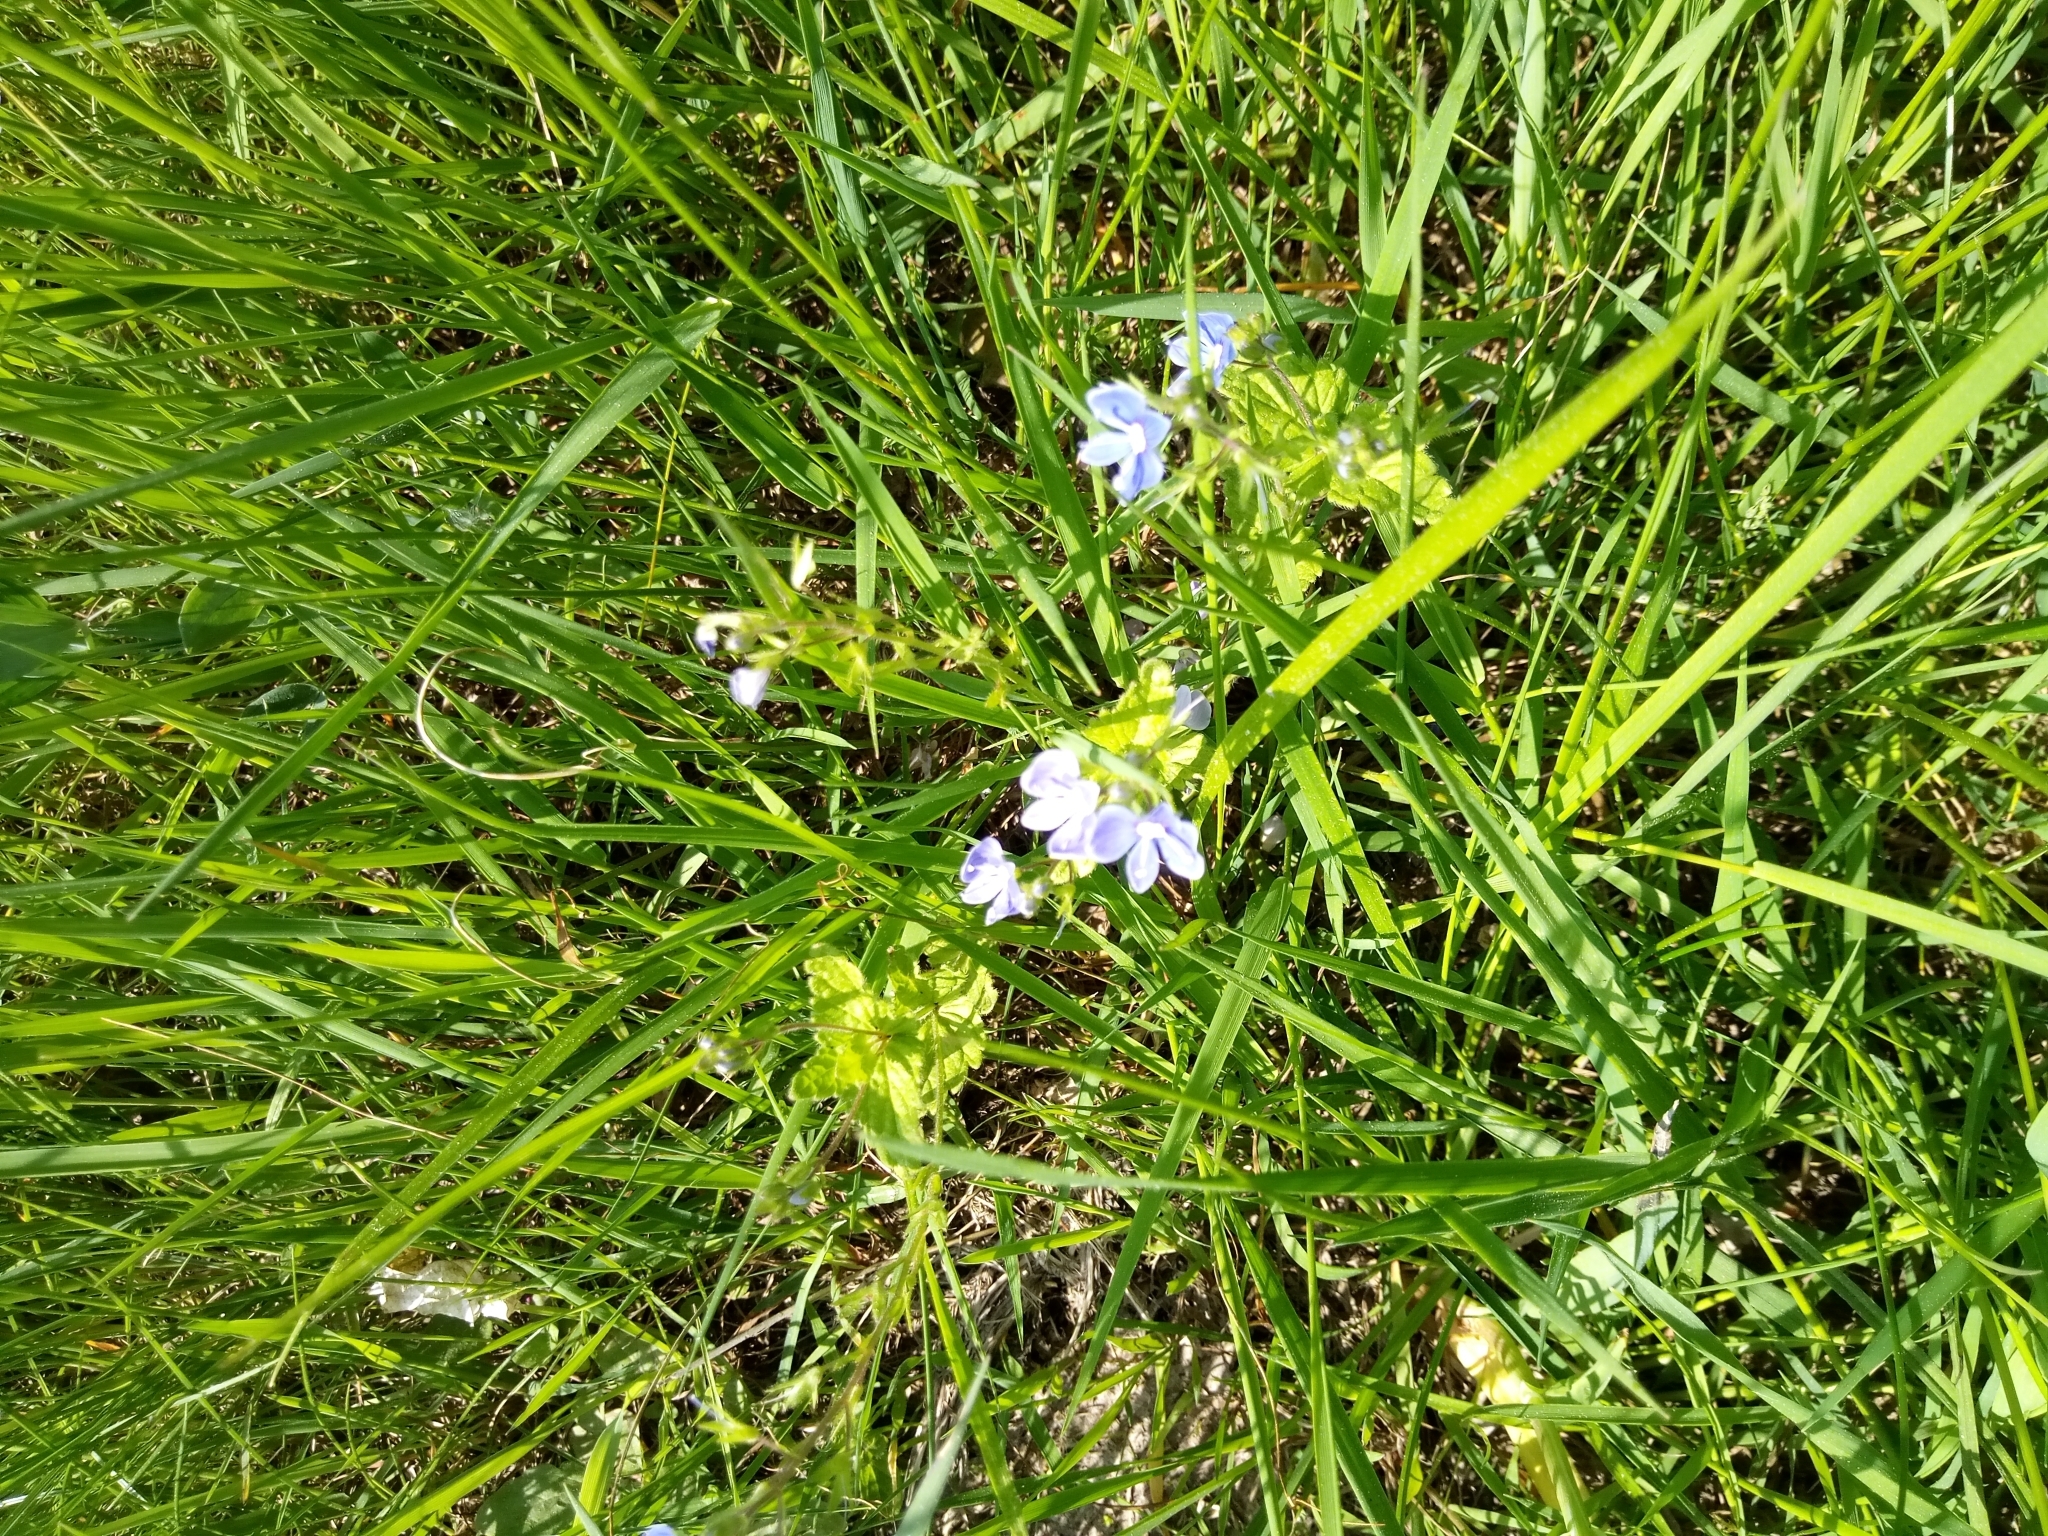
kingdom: Plantae
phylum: Tracheophyta
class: Magnoliopsida
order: Lamiales
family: Plantaginaceae
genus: Veronica
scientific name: Veronica chamaedrys
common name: Germander speedwell
